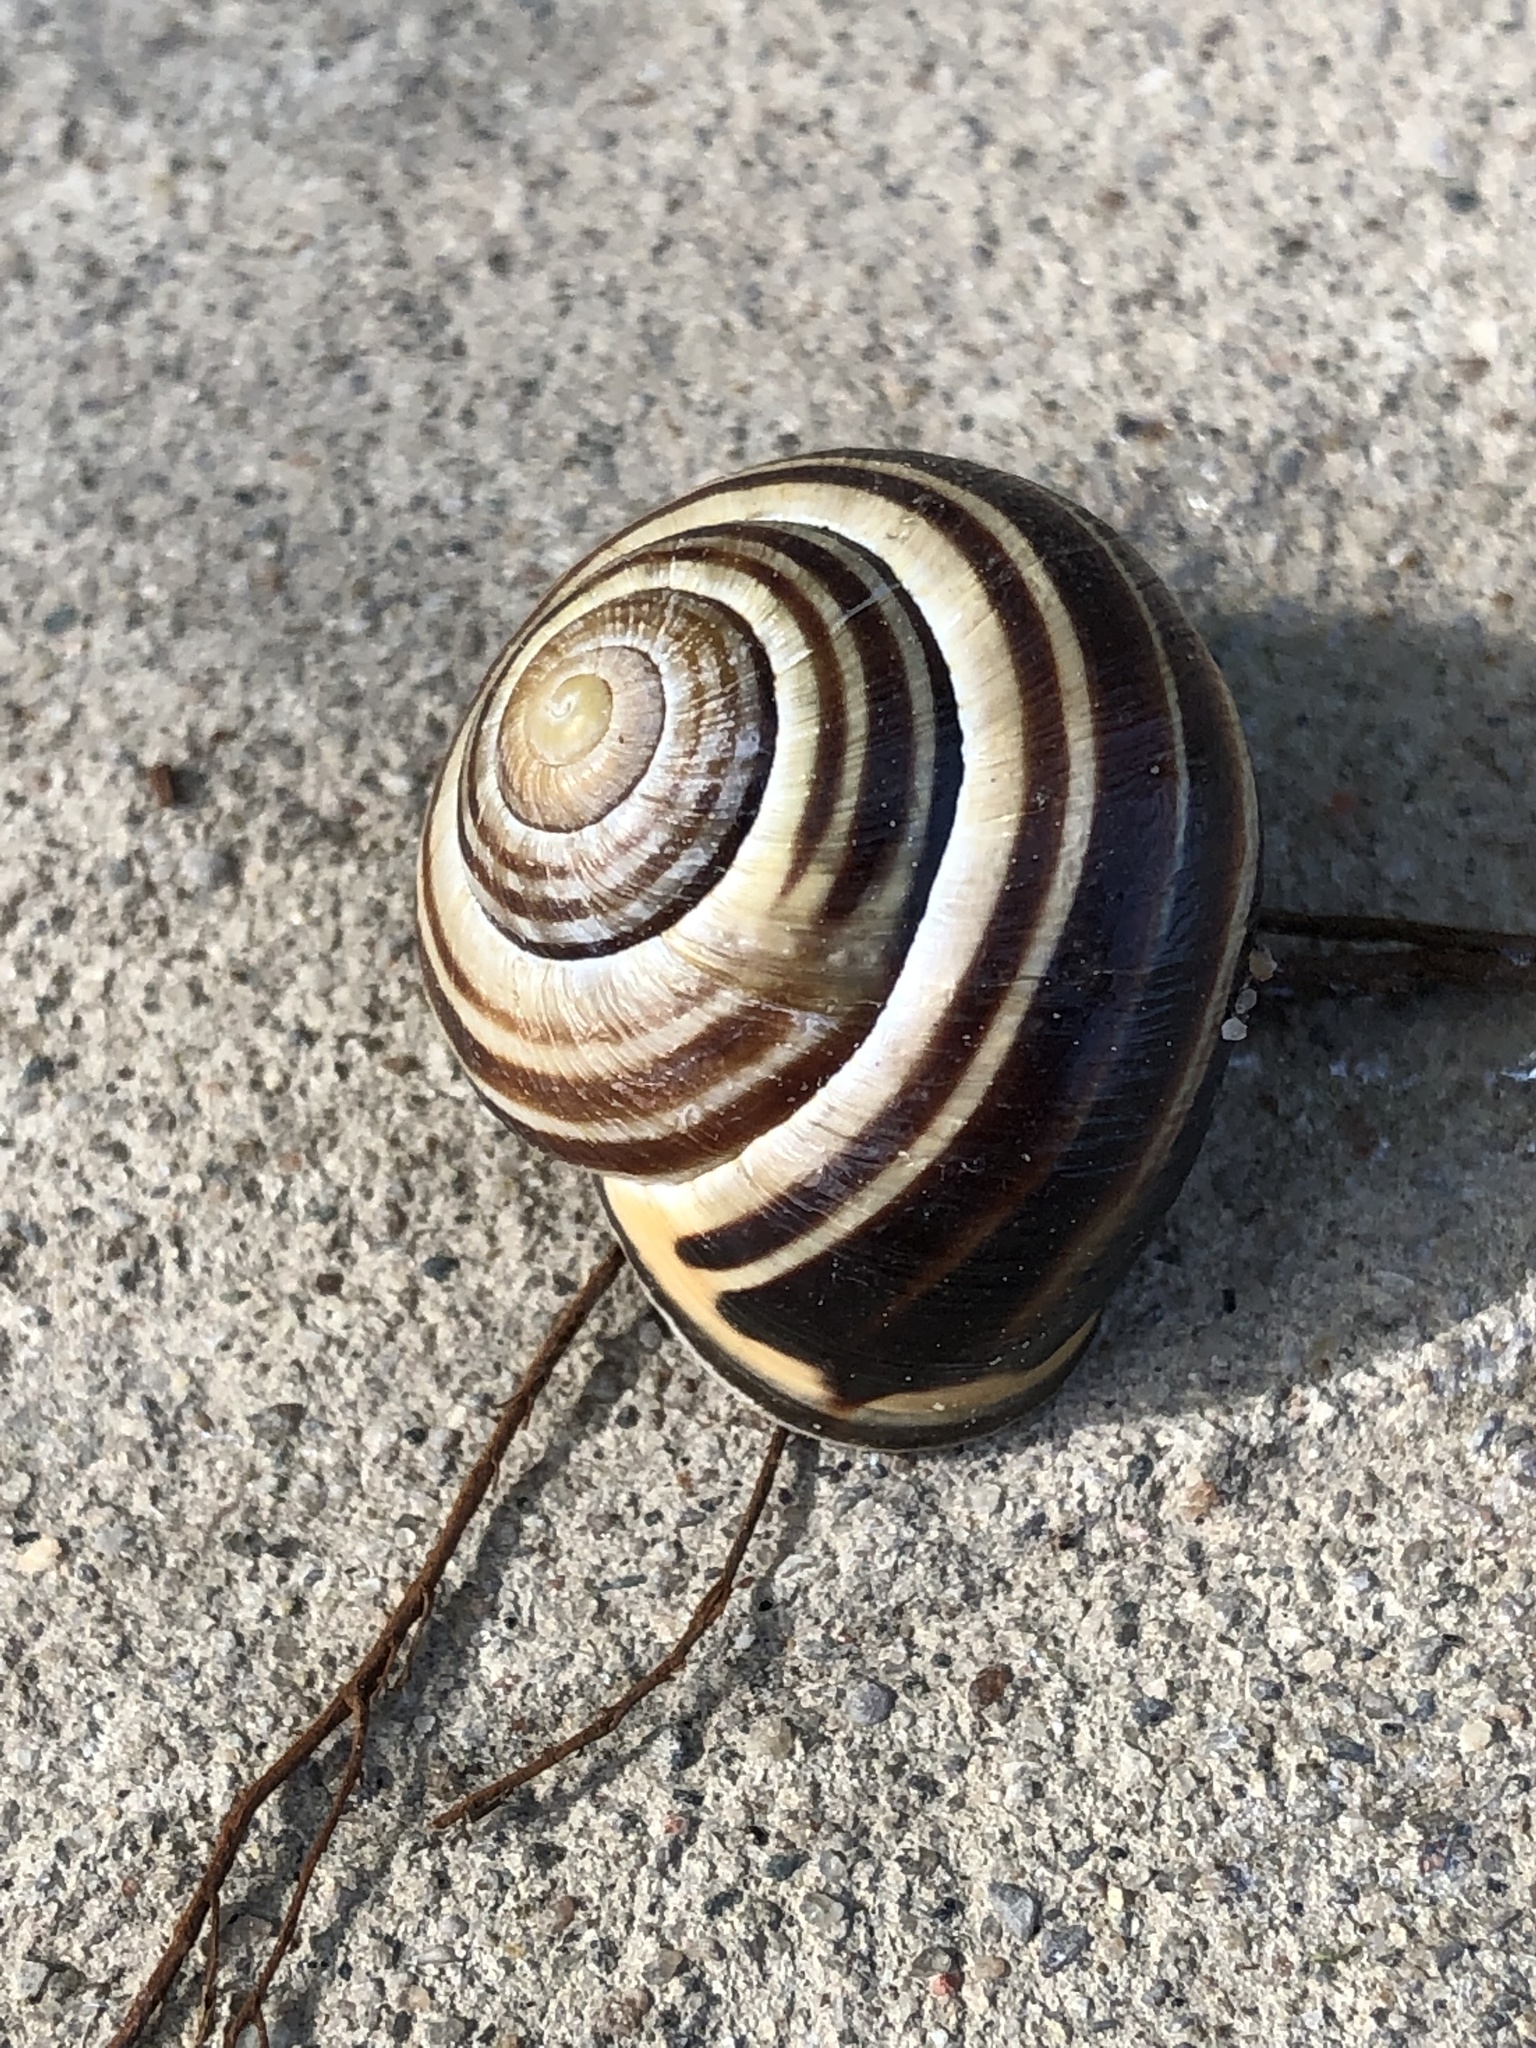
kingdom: Animalia
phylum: Mollusca
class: Gastropoda
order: Stylommatophora
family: Helicidae
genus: Cepaea
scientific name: Cepaea nemoralis
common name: Grovesnail
